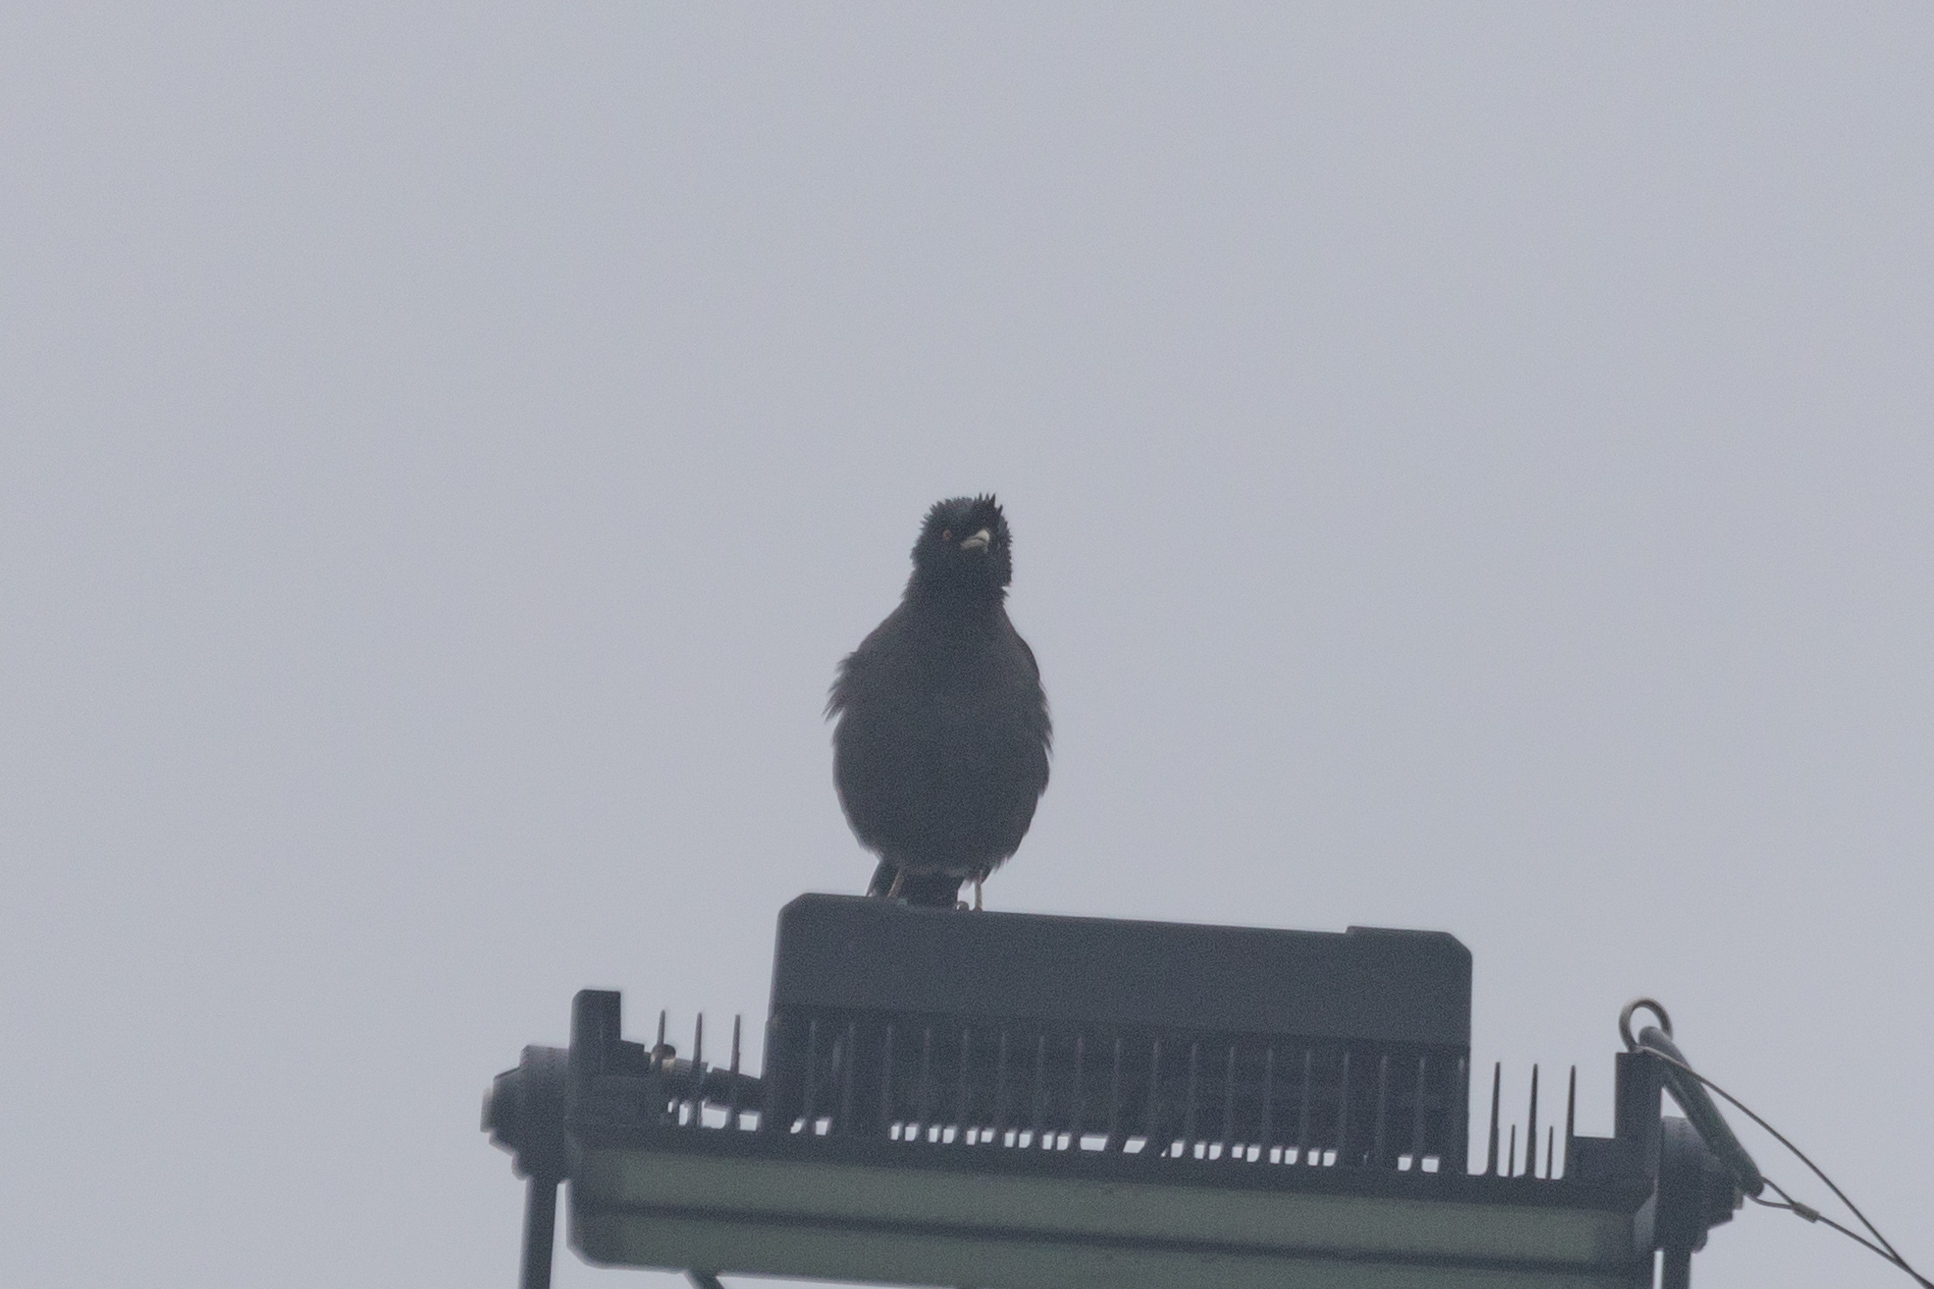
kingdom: Animalia
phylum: Chordata
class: Aves
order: Passeriformes
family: Sturnidae
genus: Acridotheres
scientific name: Acridotheres cristatellus
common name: Crested myna
